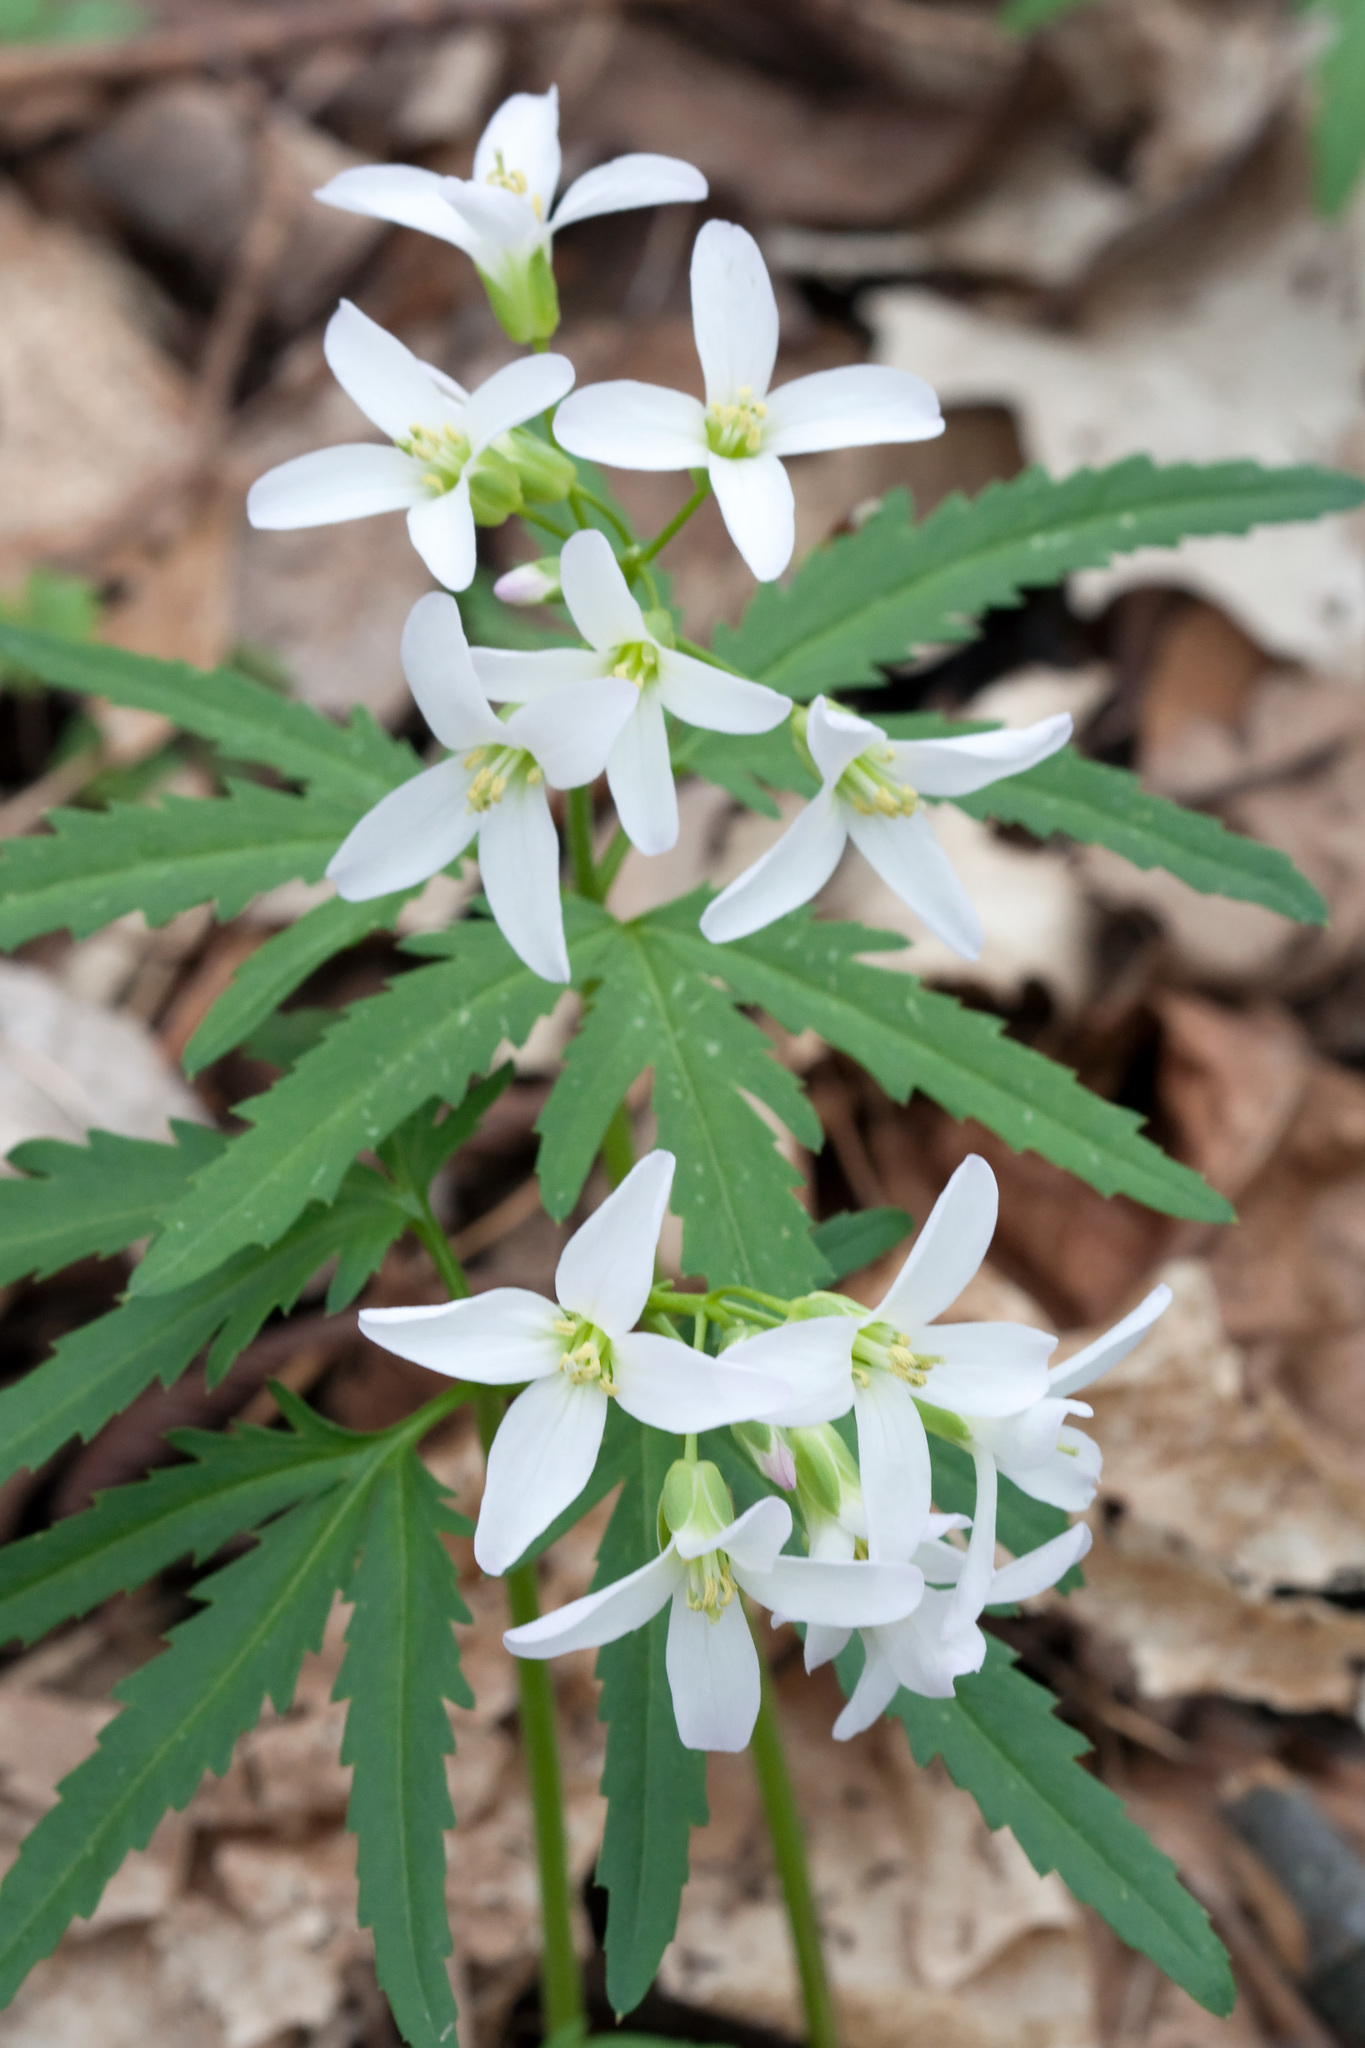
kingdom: Plantae
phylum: Tracheophyta
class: Magnoliopsida
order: Brassicales
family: Brassicaceae
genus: Cardamine
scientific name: Cardamine concatenata
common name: Cut-leaf toothcup
